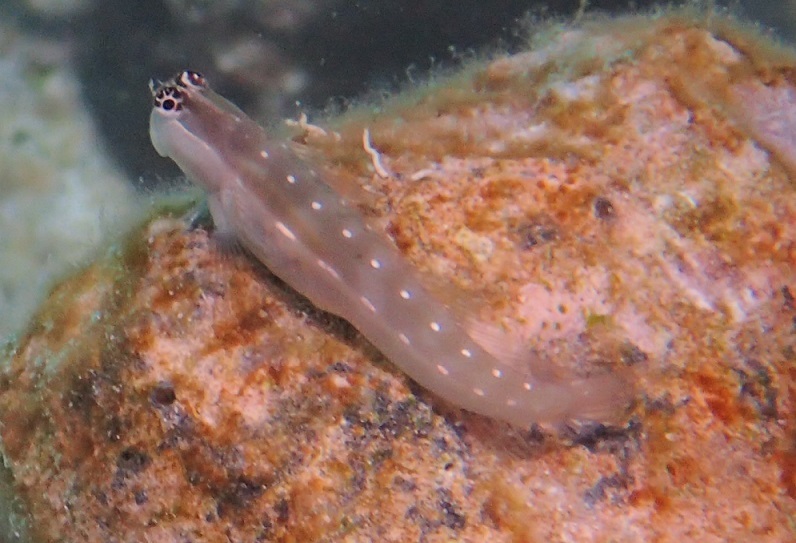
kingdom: Animalia
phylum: Chordata
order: Perciformes
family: Blenniidae
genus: Ecsenius
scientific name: Ecsenius mandibularis
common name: Queensland blenny
